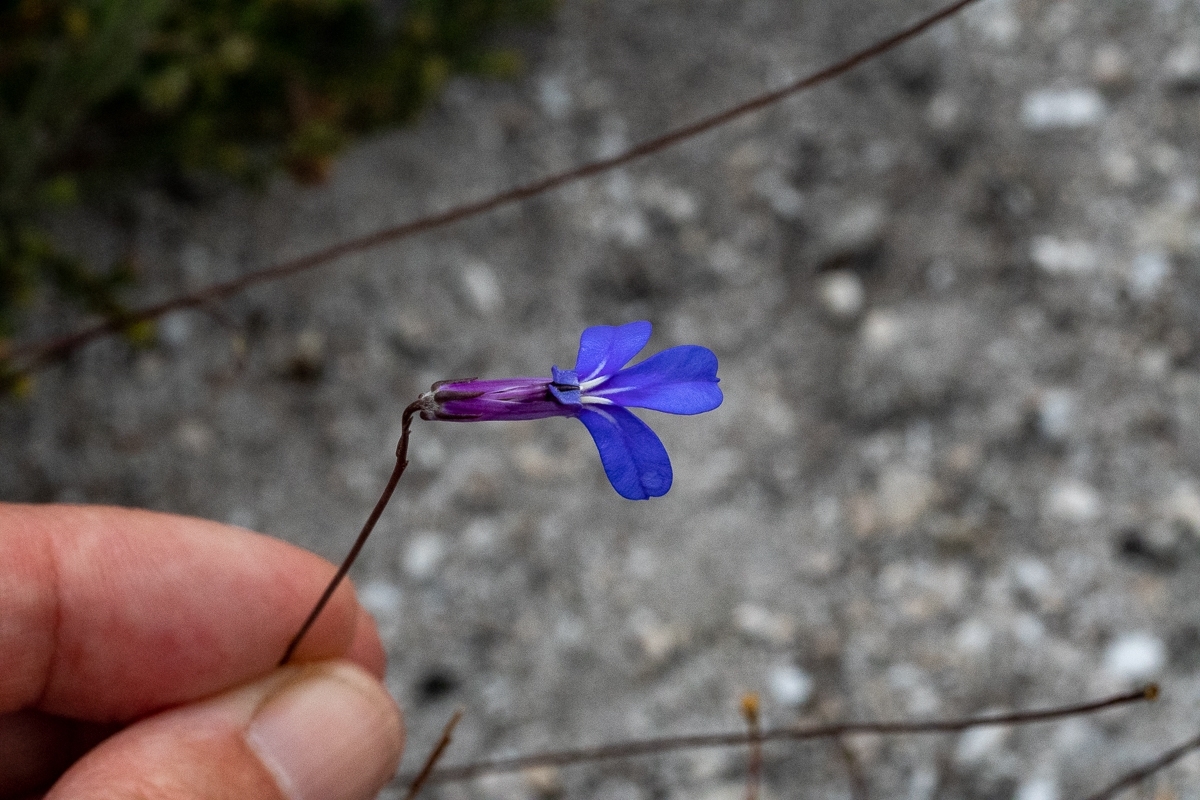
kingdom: Plantae
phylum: Tracheophyta
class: Magnoliopsida
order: Asterales
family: Campanulaceae
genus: Lobelia
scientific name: Lobelia chamaepitys
